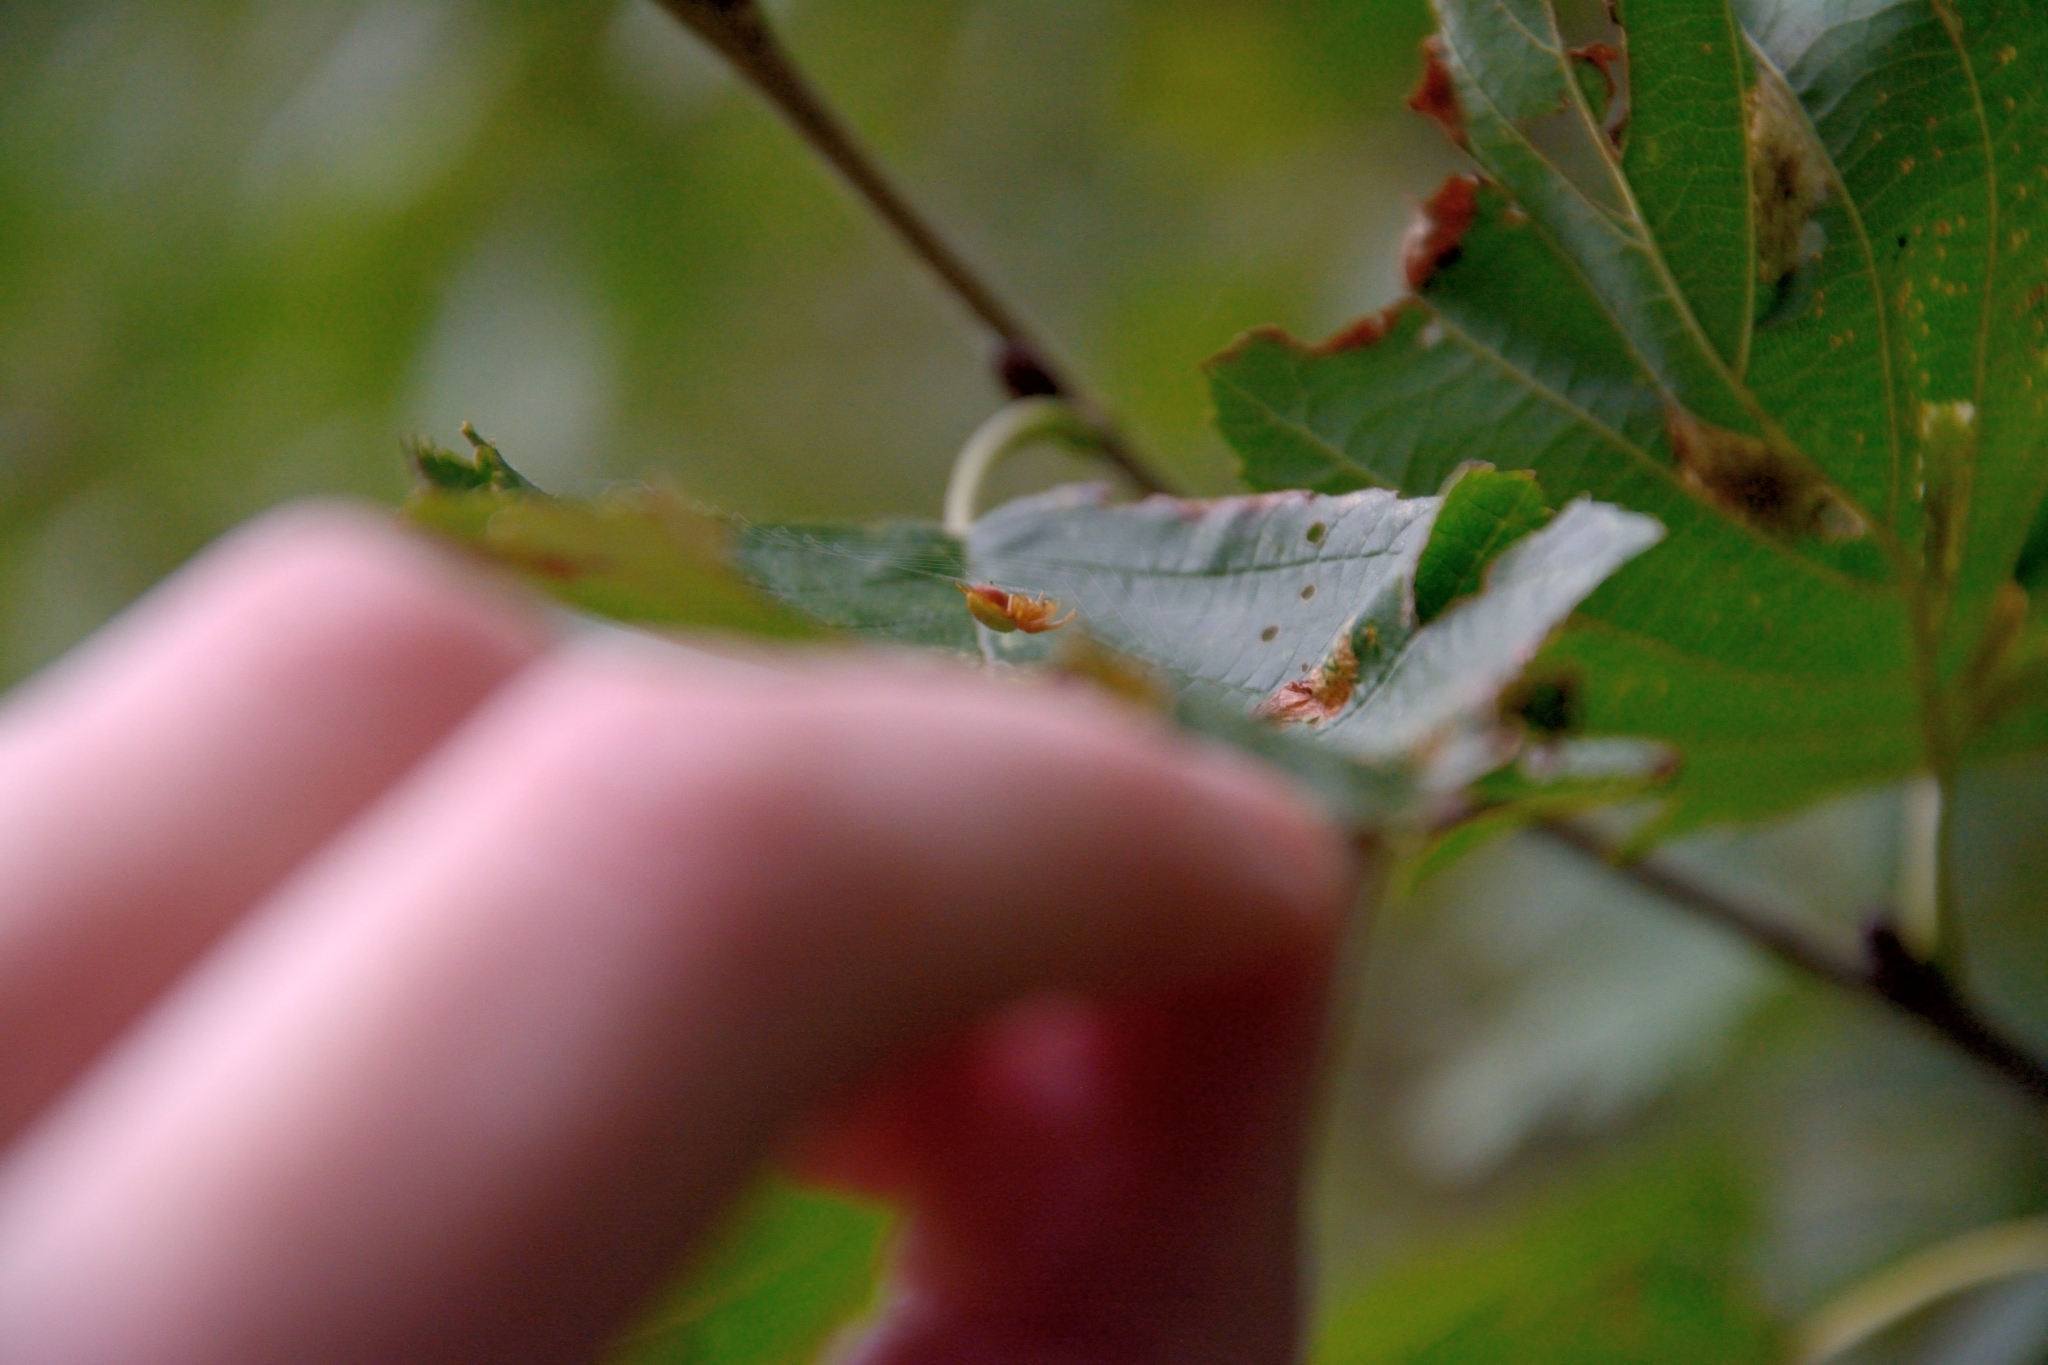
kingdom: Animalia
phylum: Arthropoda
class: Arachnida
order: Araneae
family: Araneidae
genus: Araniella
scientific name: Araniella
